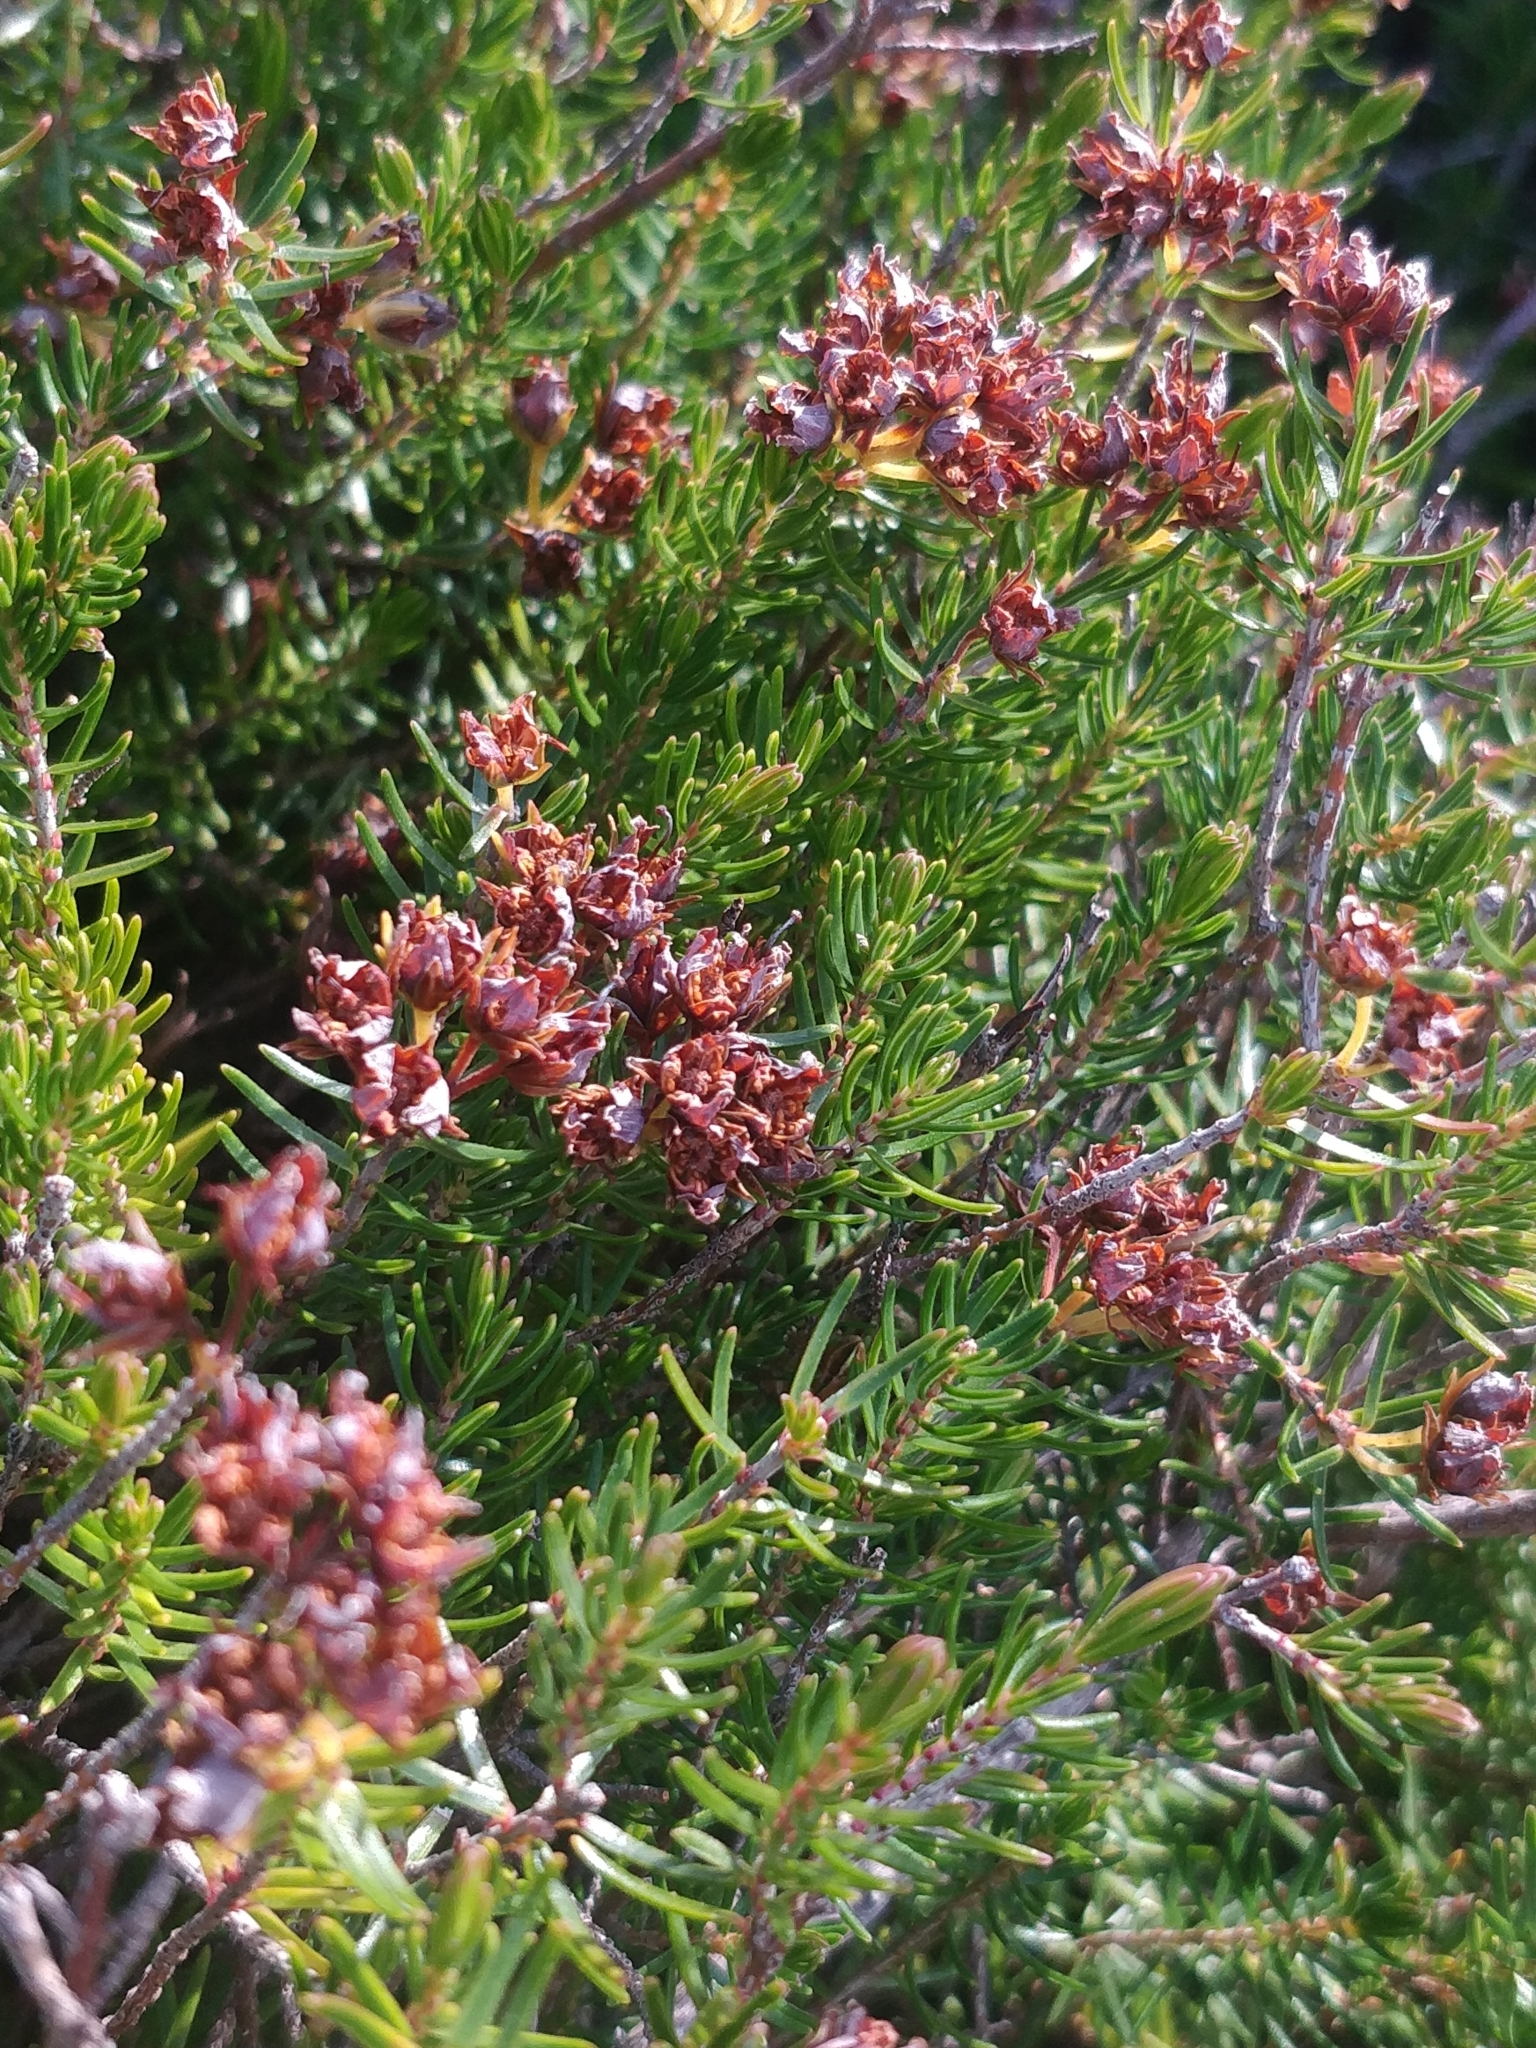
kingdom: Plantae
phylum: Tracheophyta
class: Magnoliopsida
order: Ericales
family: Ericaceae
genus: Erica
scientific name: Erica maderensis
